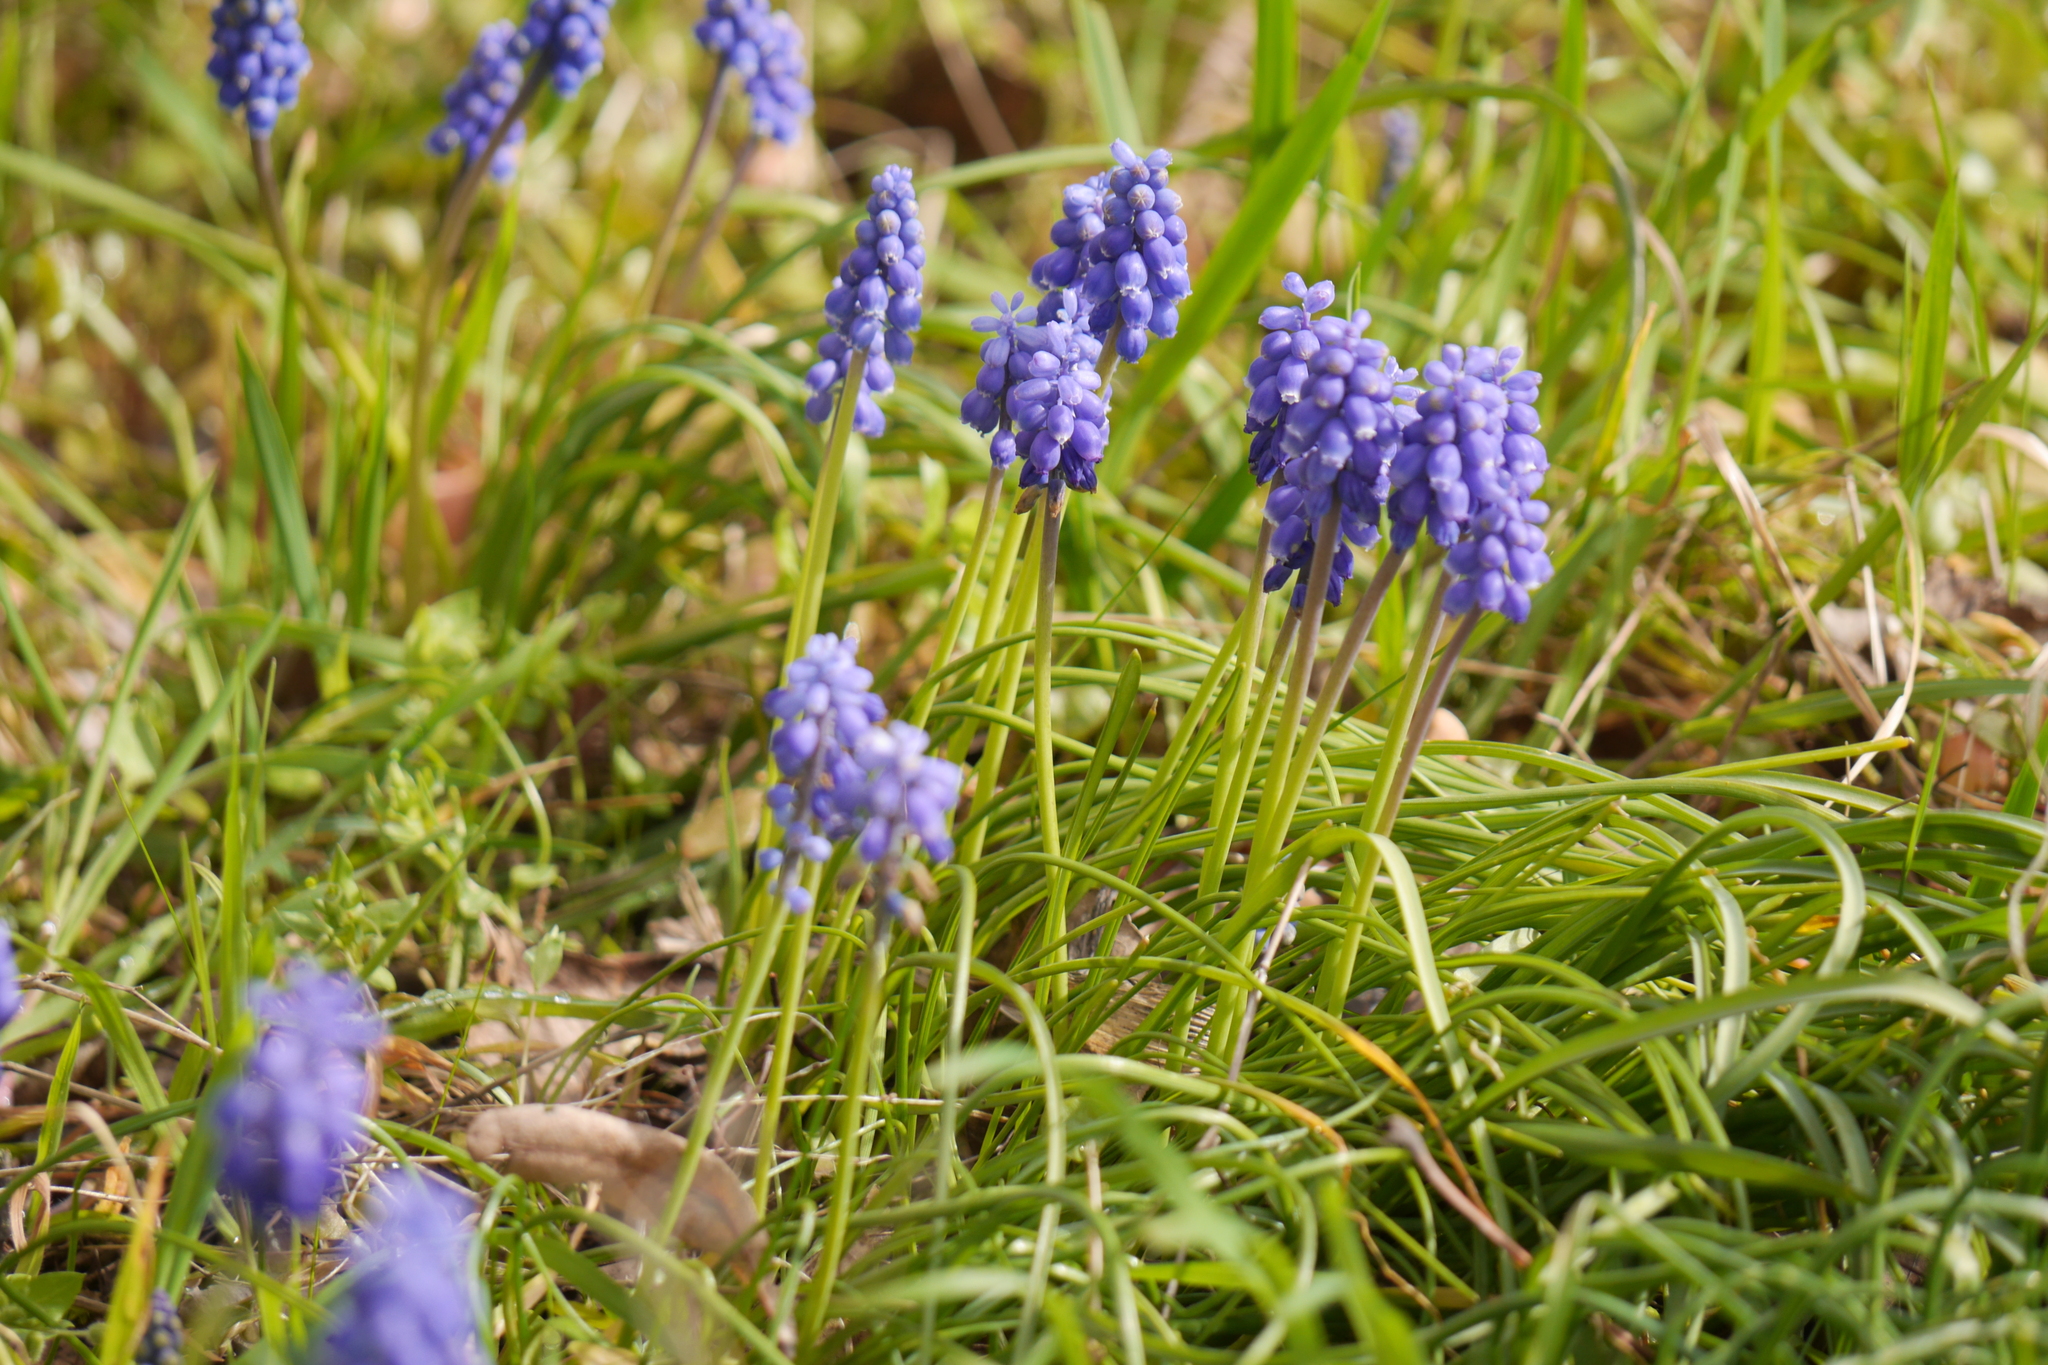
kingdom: Plantae
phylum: Tracheophyta
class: Liliopsida
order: Asparagales
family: Asparagaceae
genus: Muscari
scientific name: Muscari armeniacum
